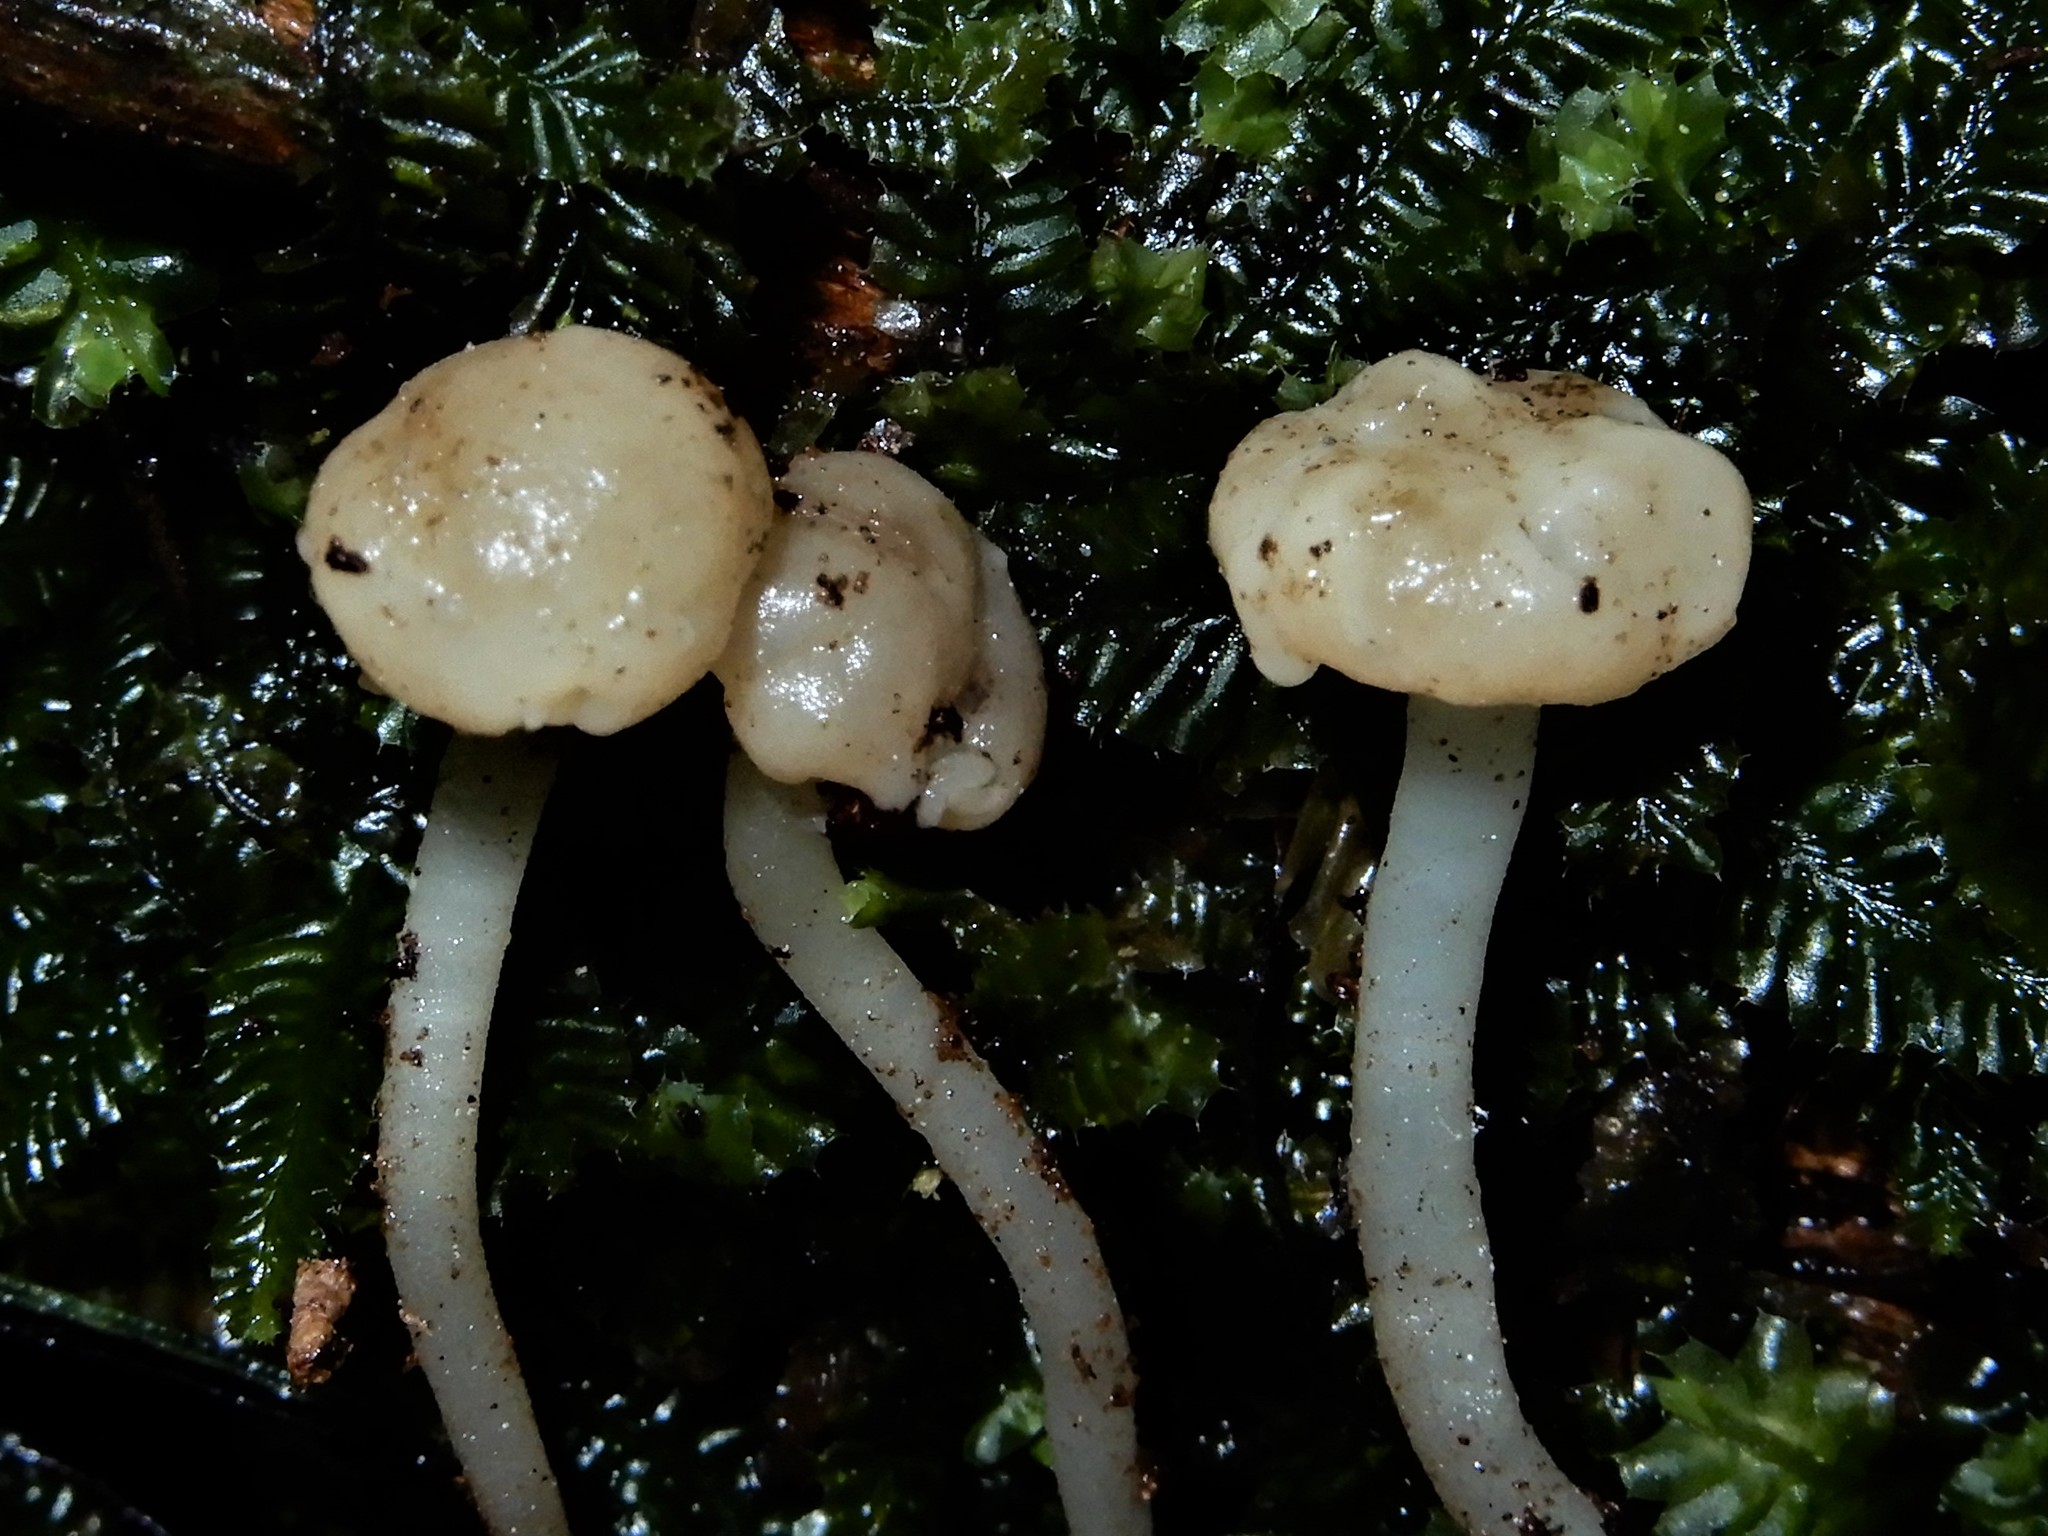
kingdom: Fungi
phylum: Ascomycota
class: Leotiomycetes
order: Helotiales
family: Vibrisseaceae
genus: Vibrissea
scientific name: Vibrissea dura
